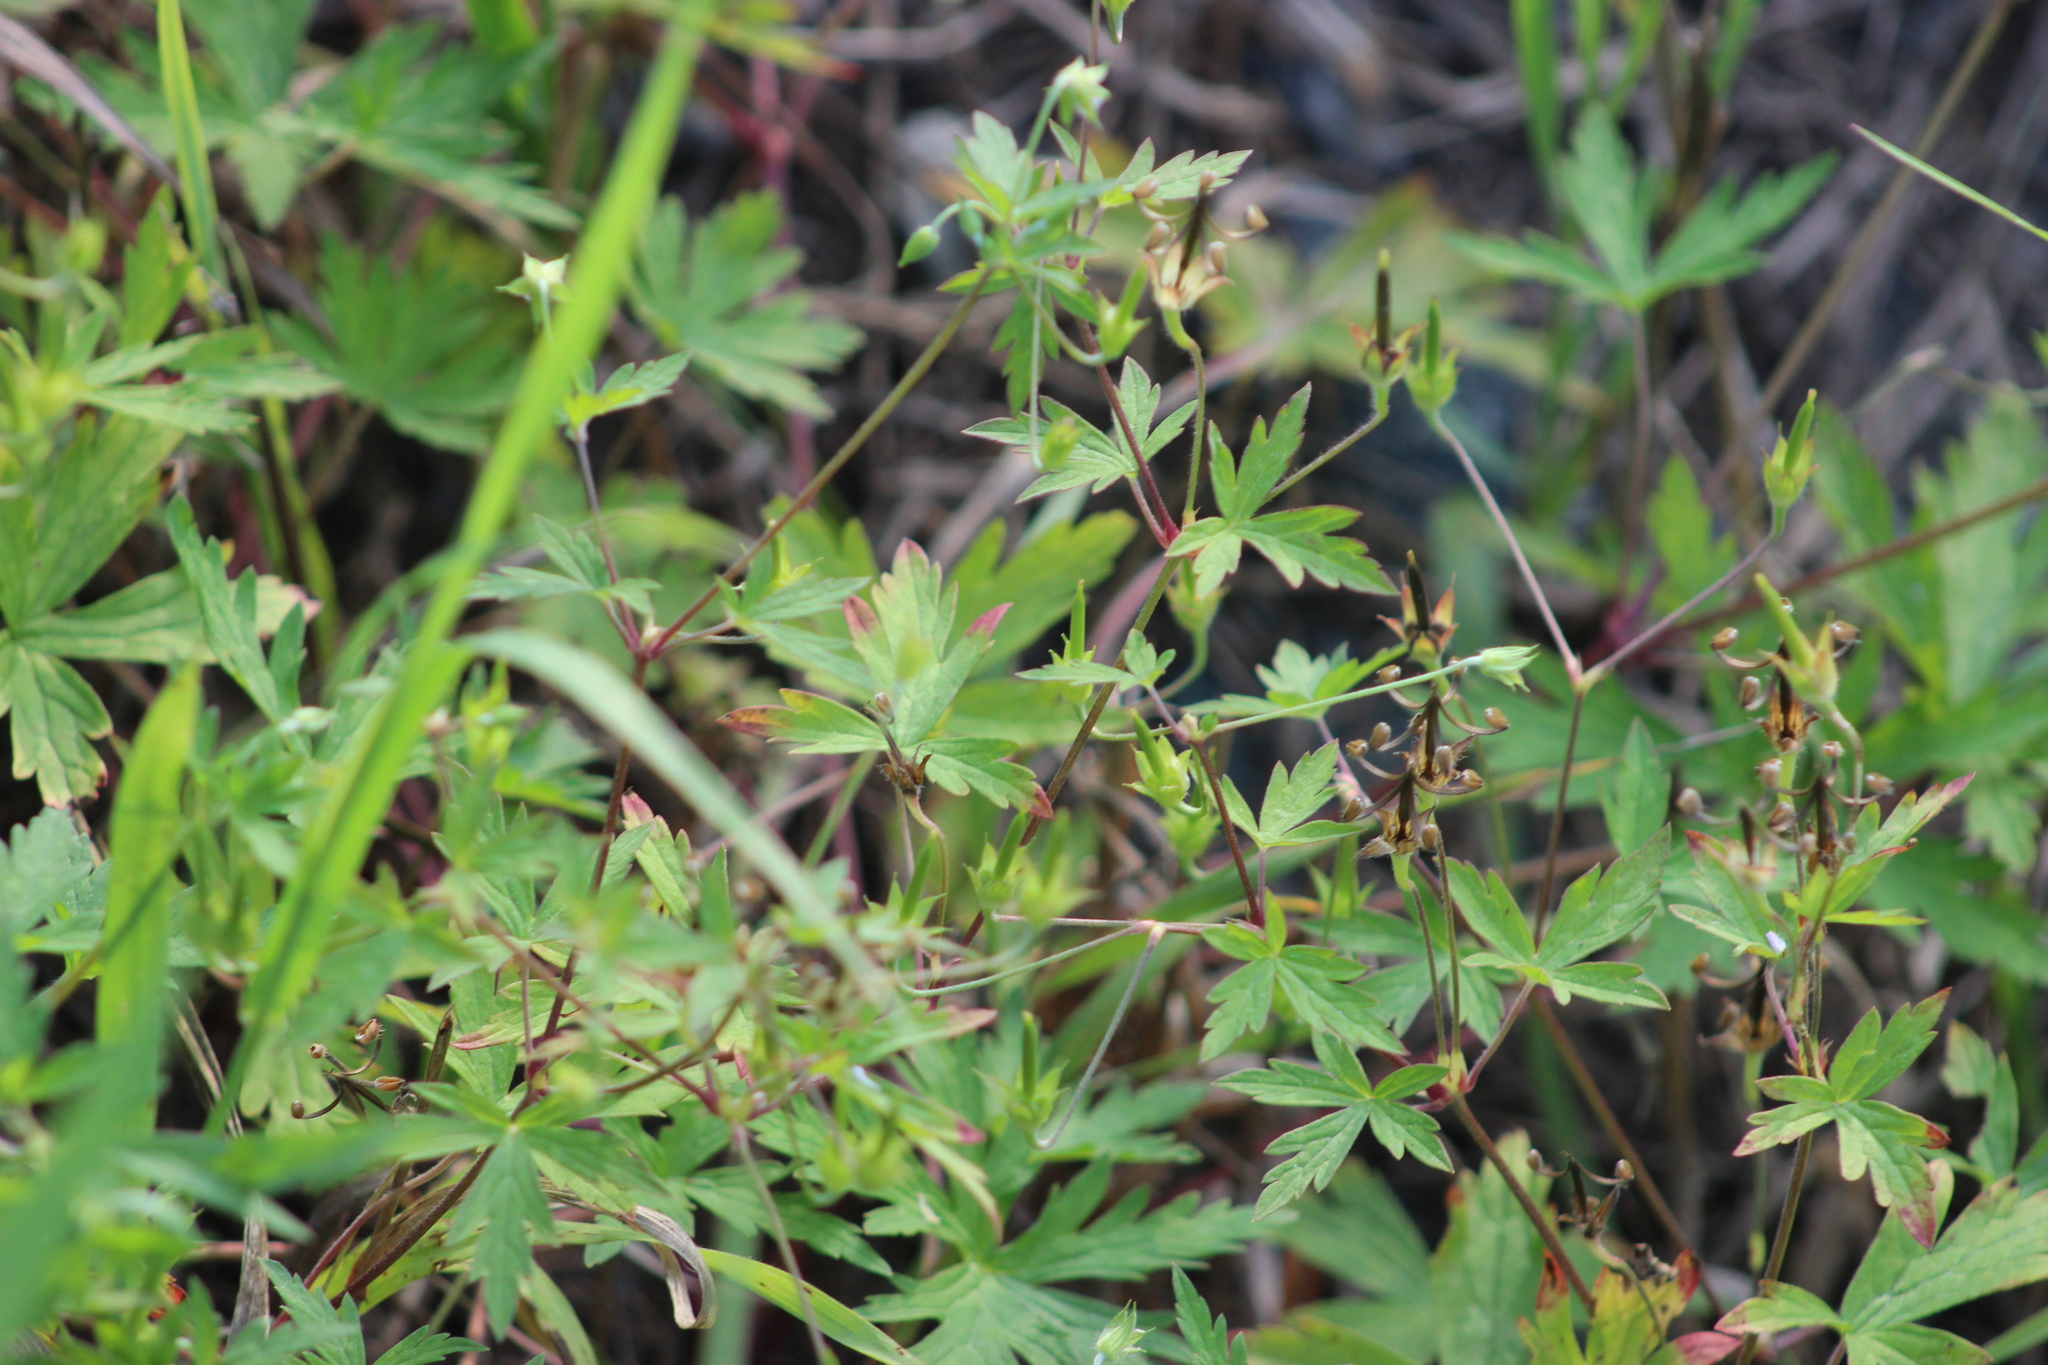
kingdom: Plantae
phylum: Tracheophyta
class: Magnoliopsida
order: Geraniales
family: Geraniaceae
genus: Geranium
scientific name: Geranium sibiricum
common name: Siberian crane's-bill
